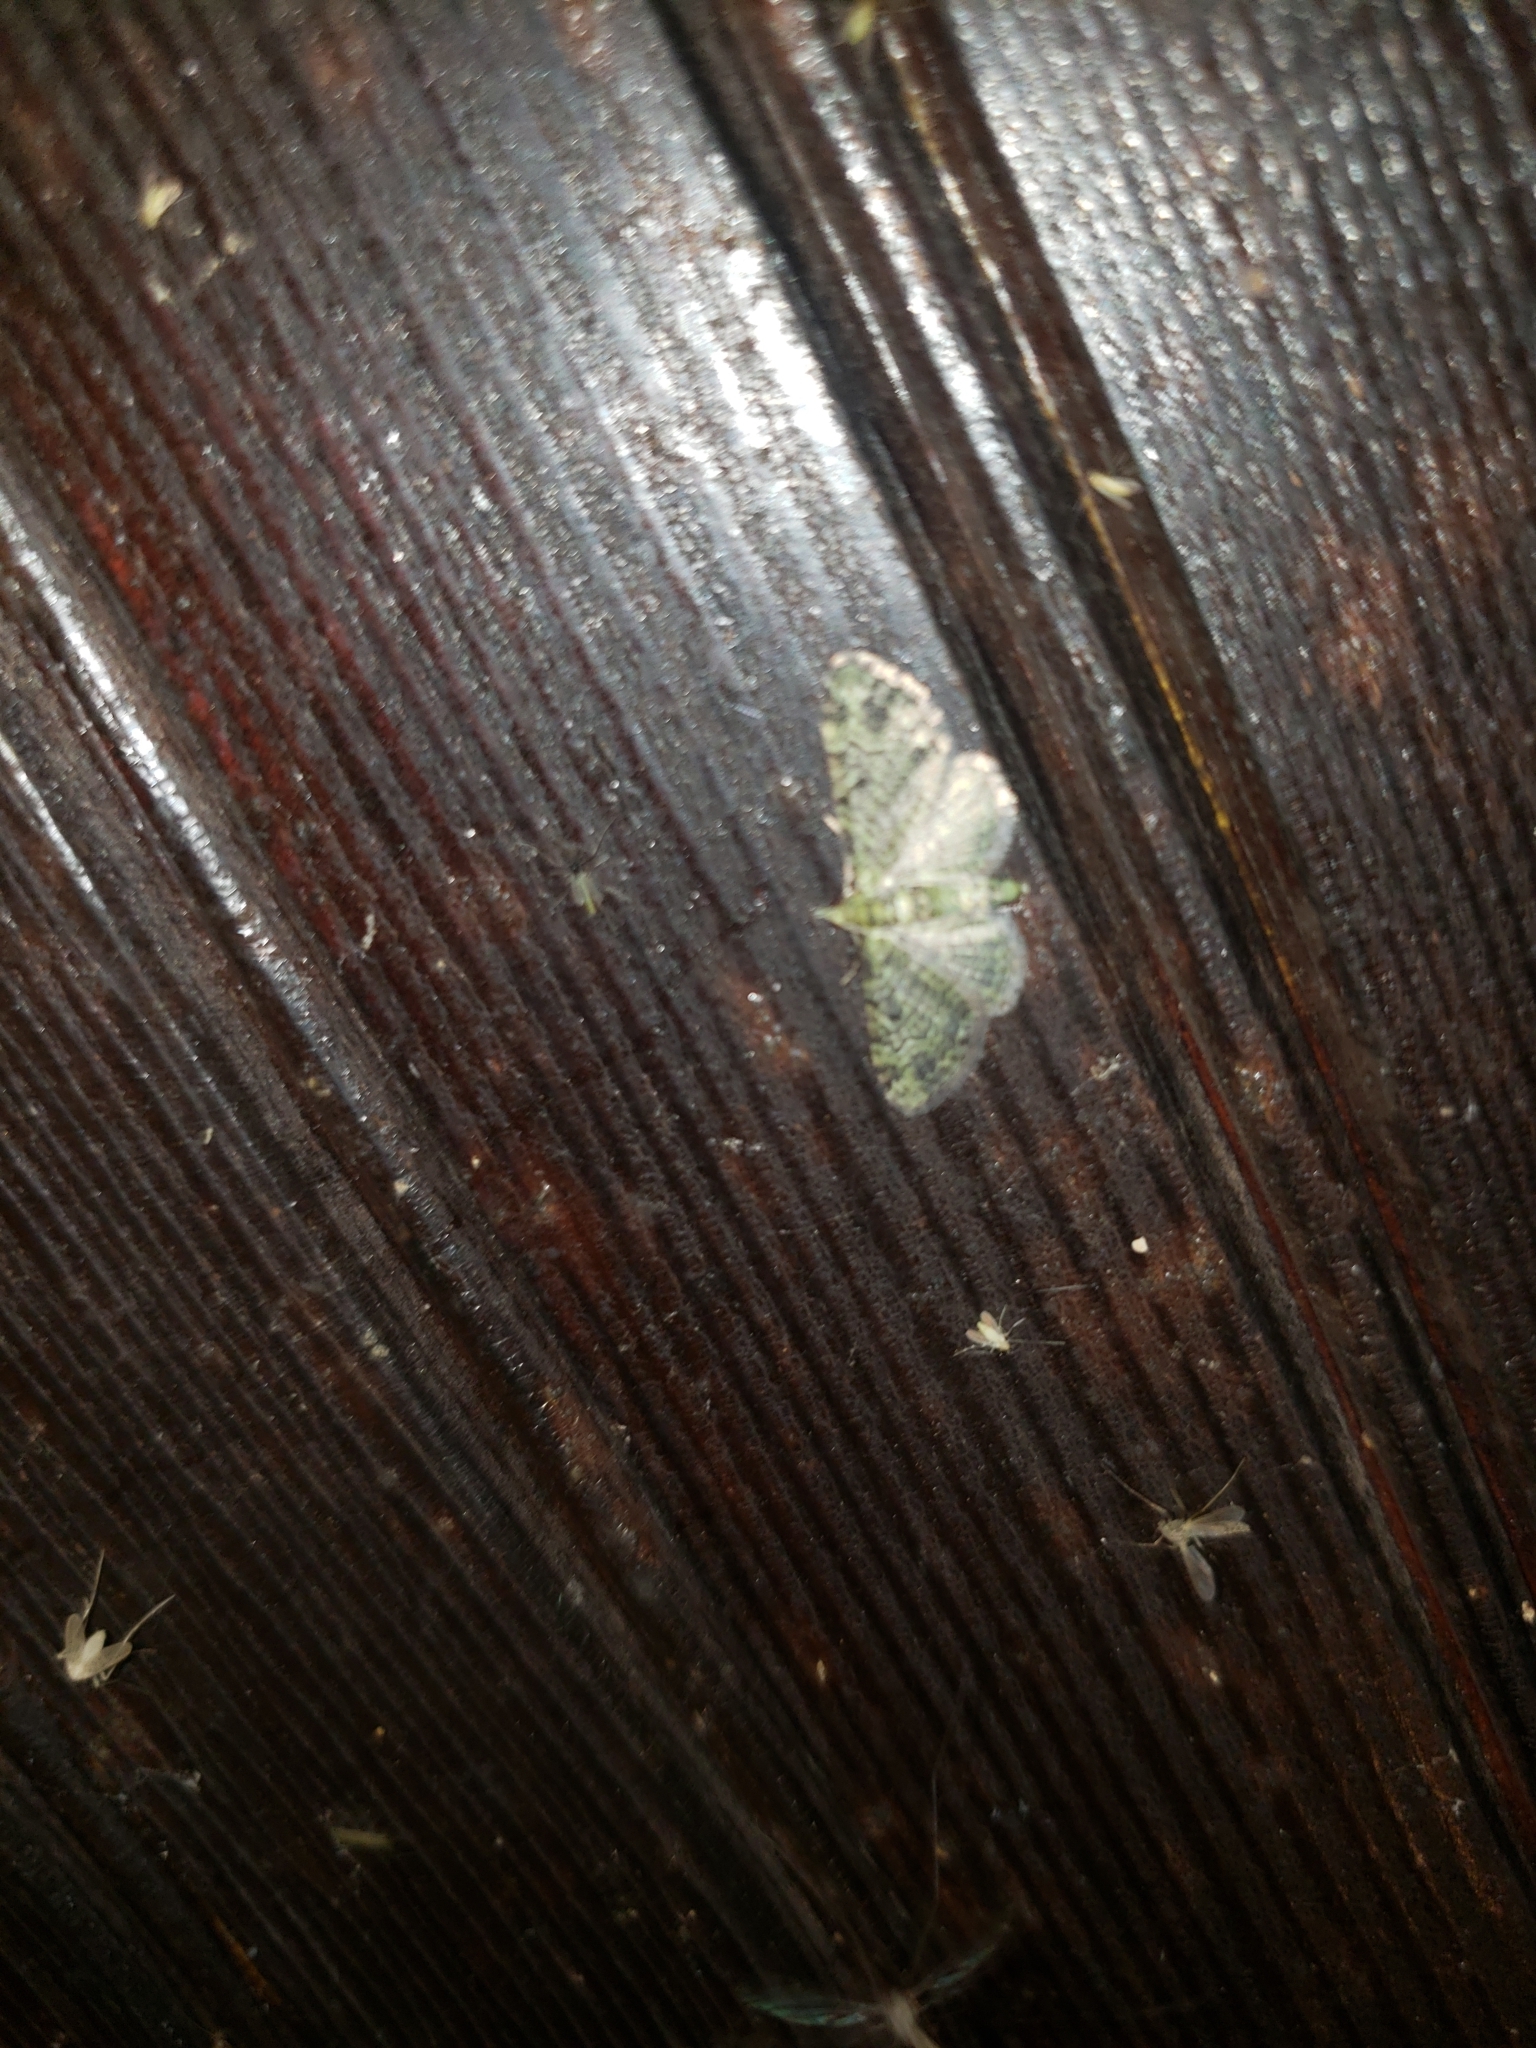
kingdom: Animalia
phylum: Arthropoda
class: Insecta
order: Lepidoptera
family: Geometridae
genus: Pasiphila
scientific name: Pasiphila rectangulata
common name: Green pug
